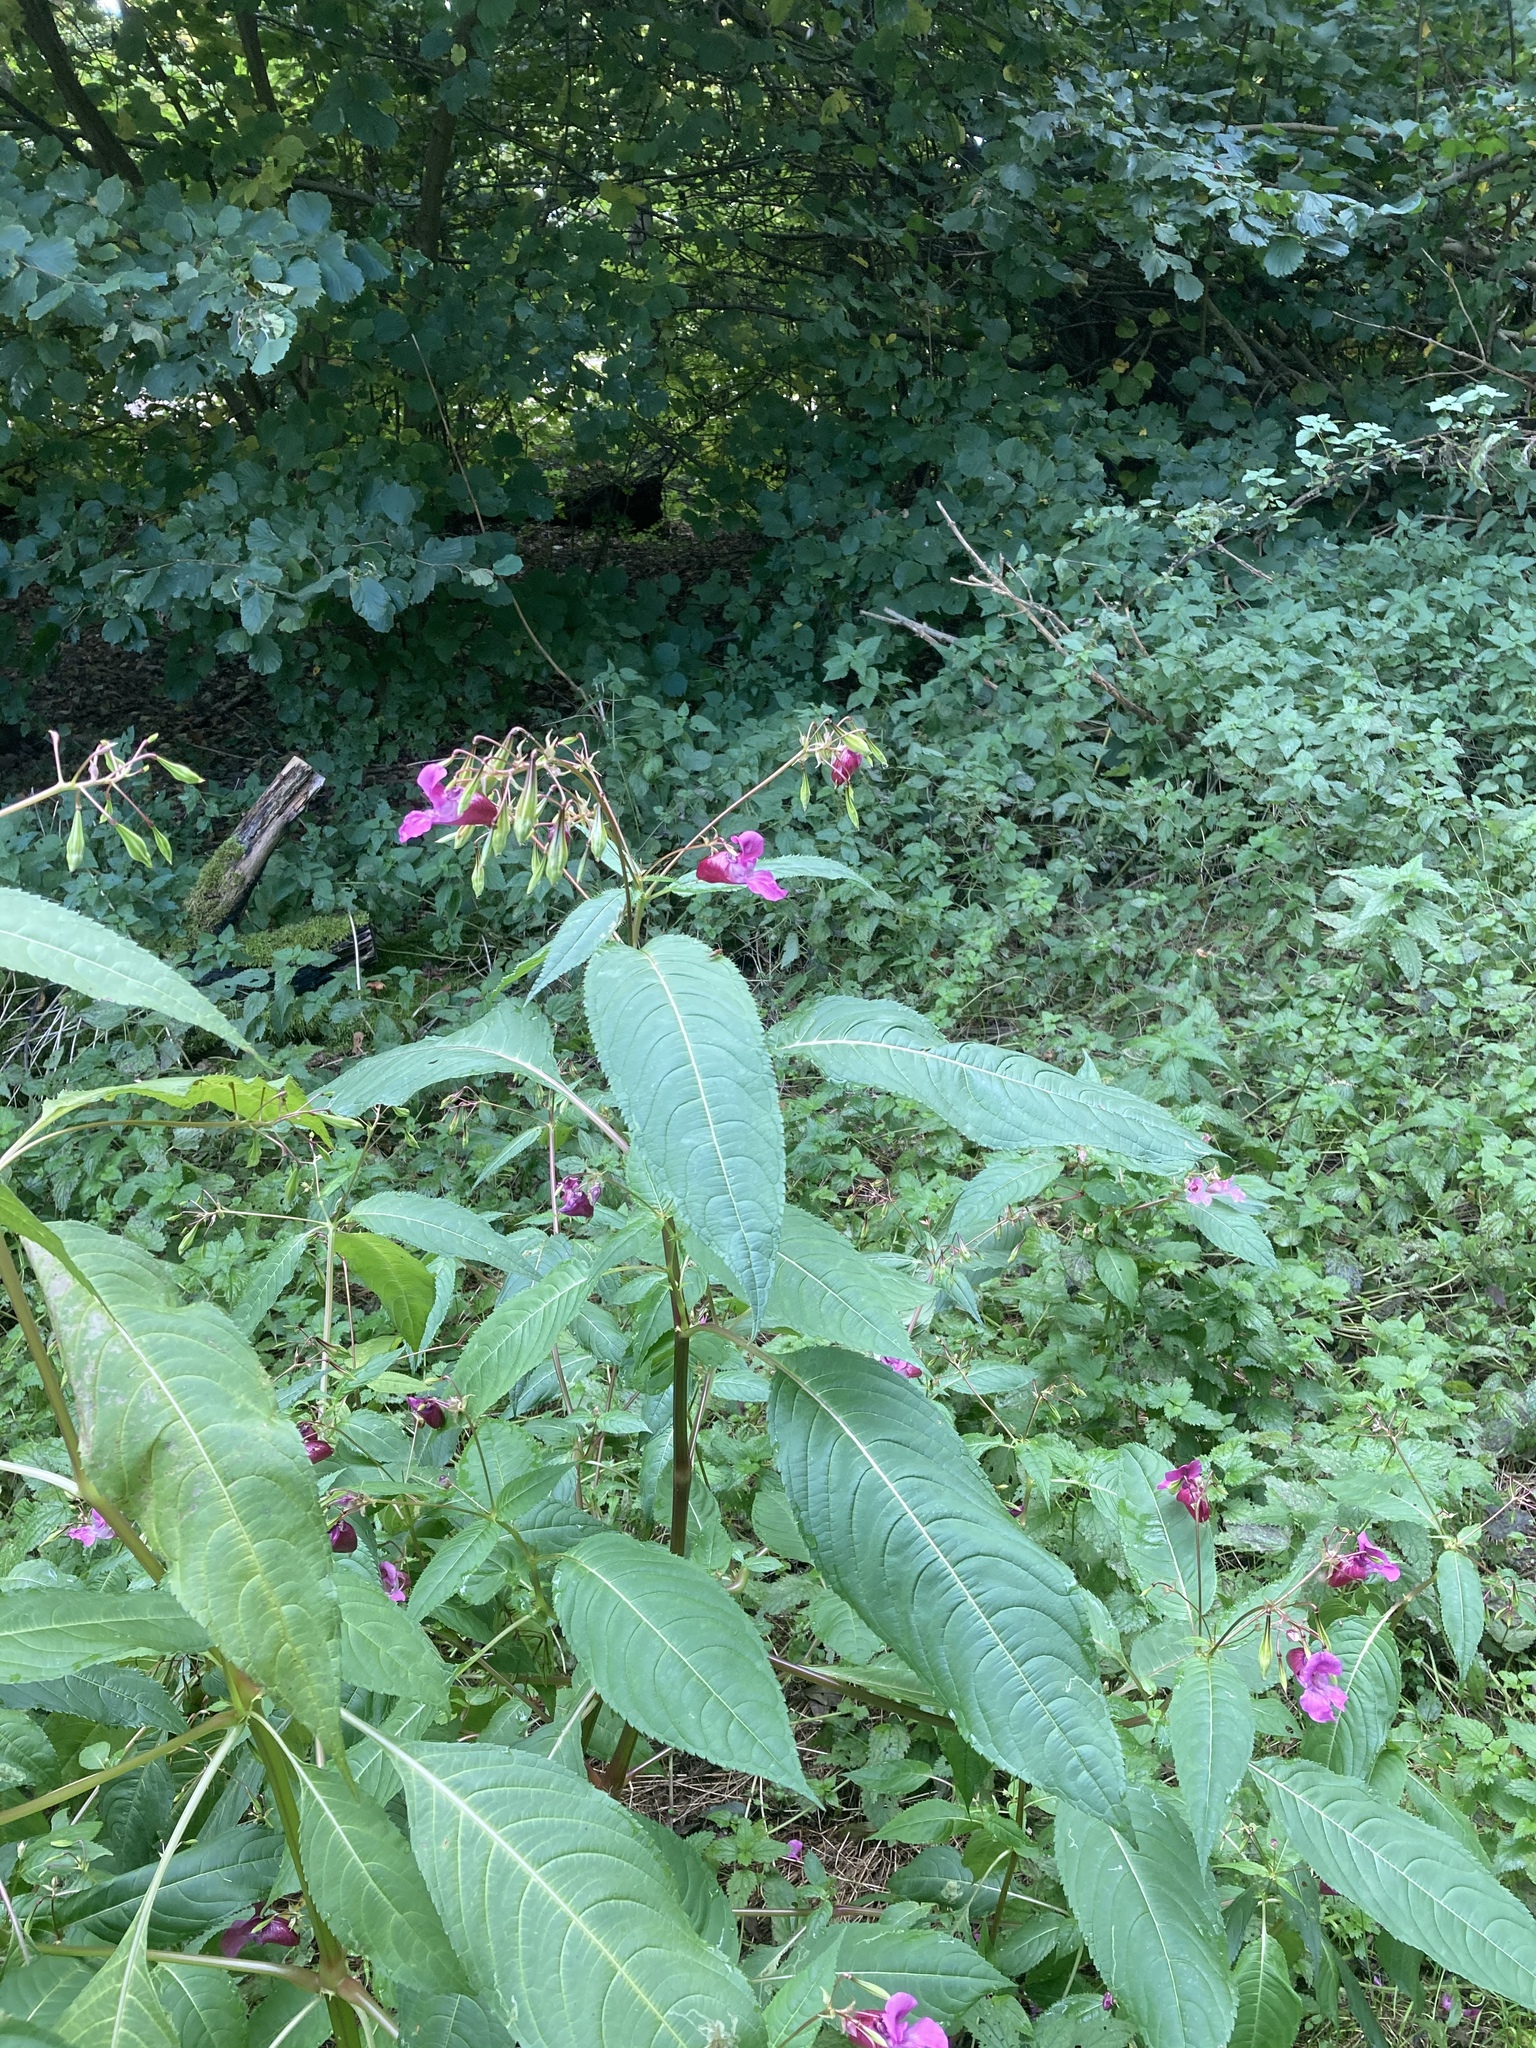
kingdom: Plantae
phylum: Tracheophyta
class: Magnoliopsida
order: Ericales
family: Balsaminaceae
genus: Impatiens
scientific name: Impatiens glandulifera
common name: Himalayan balsam
